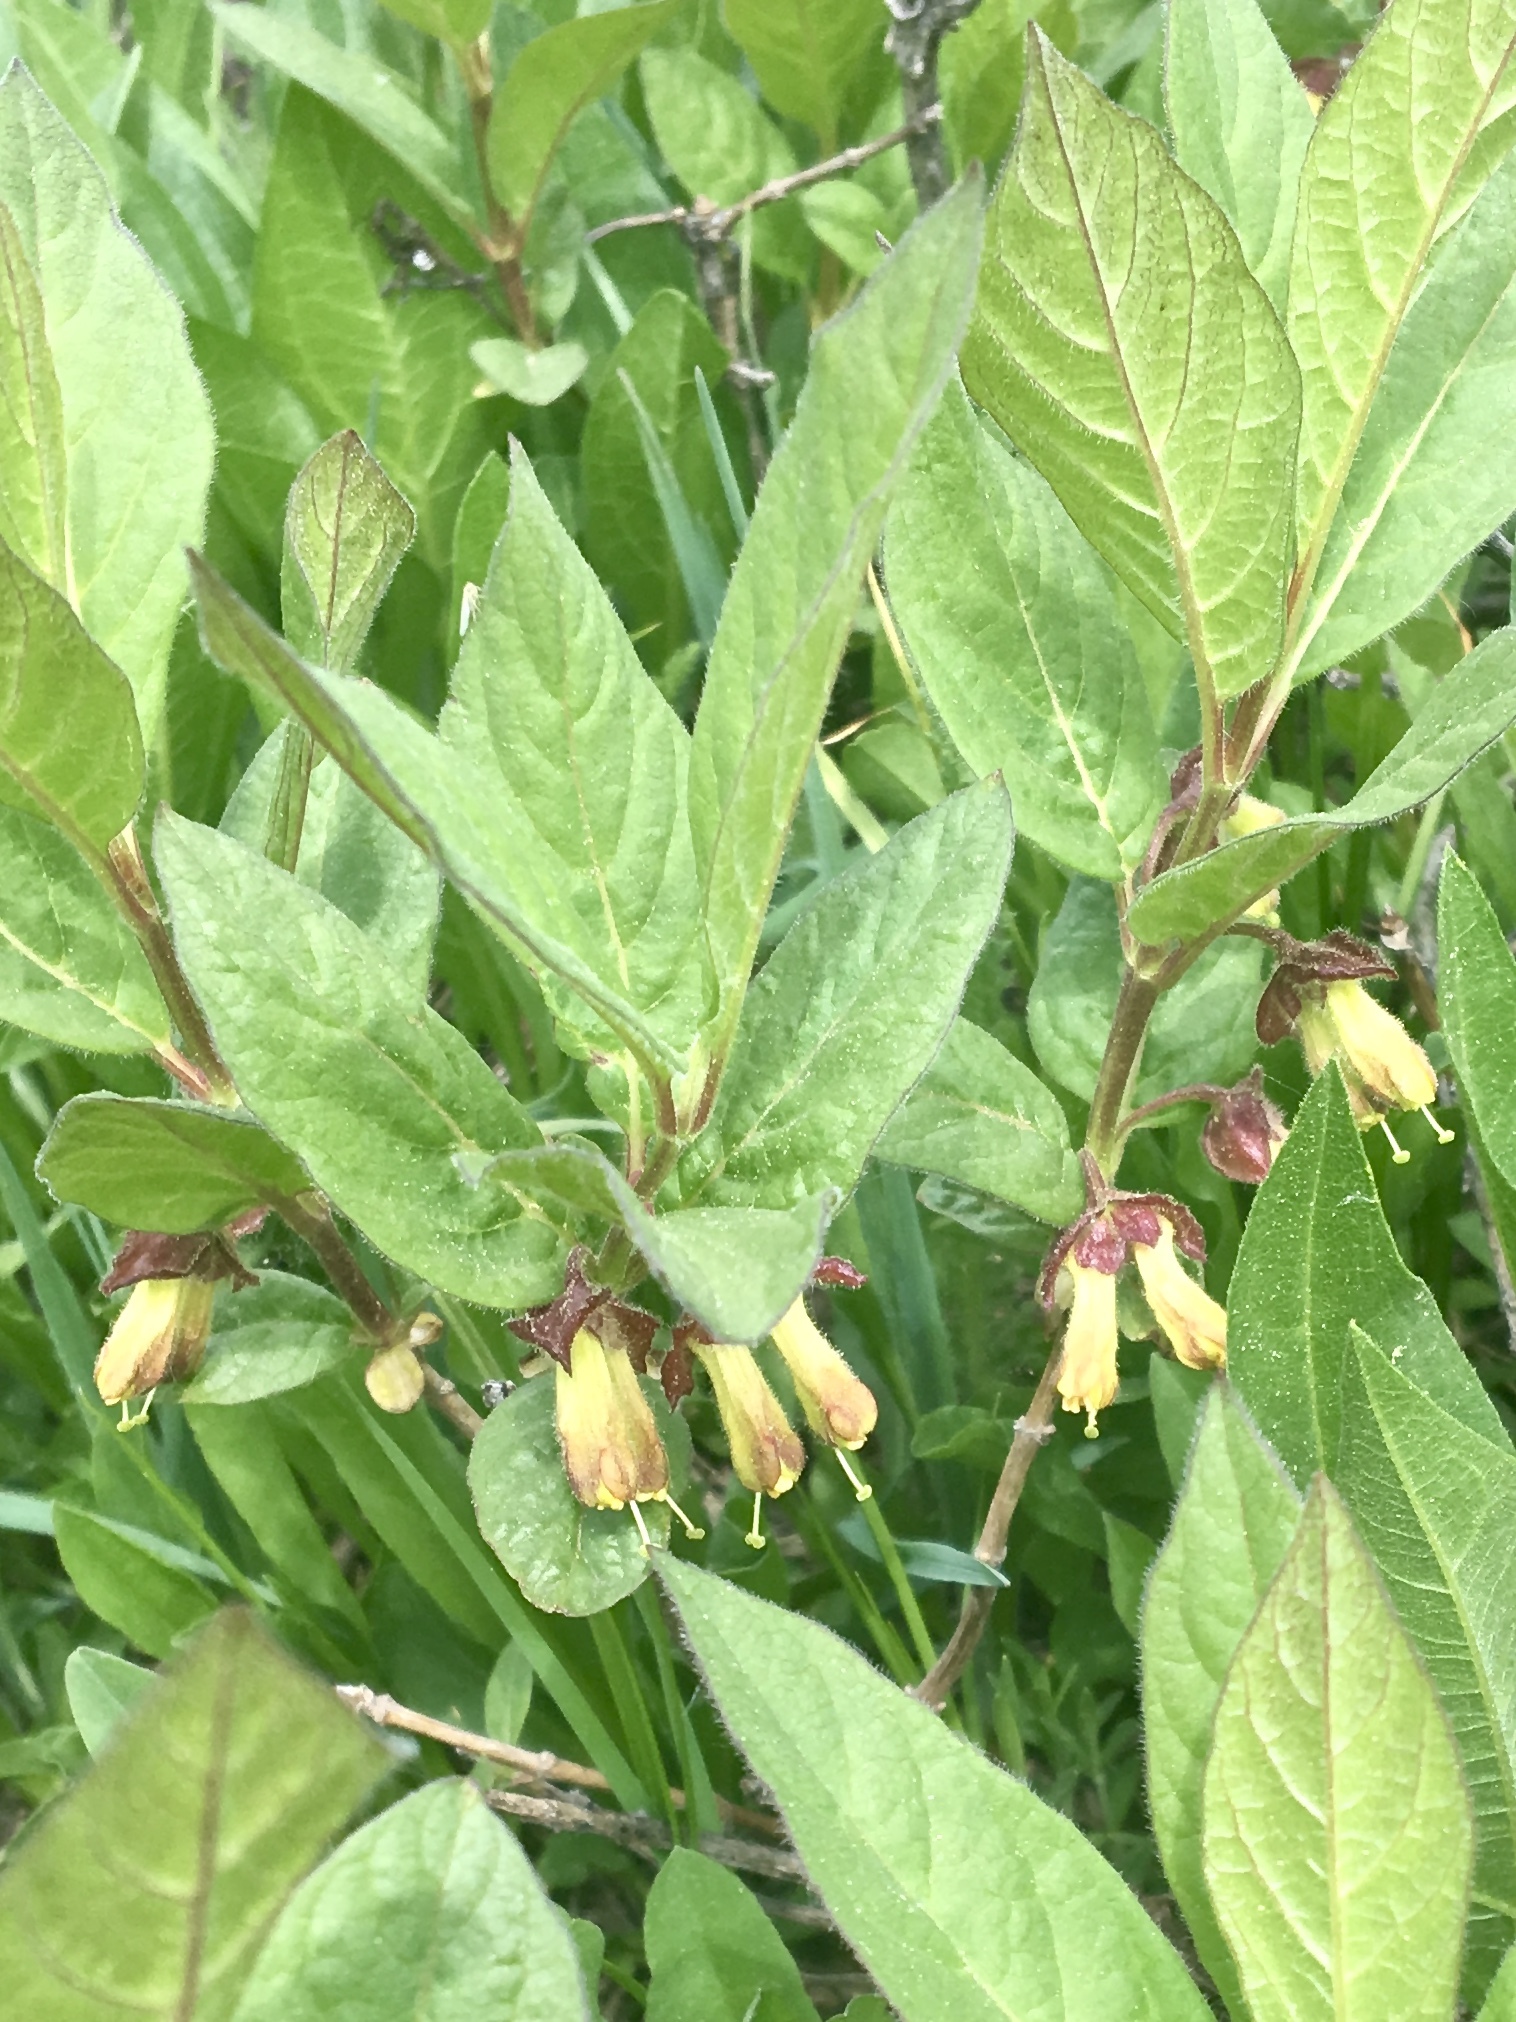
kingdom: Plantae
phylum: Tracheophyta
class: Magnoliopsida
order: Dipsacales
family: Caprifoliaceae
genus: Lonicera
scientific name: Lonicera involucrata
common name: Californian honeysuckle
